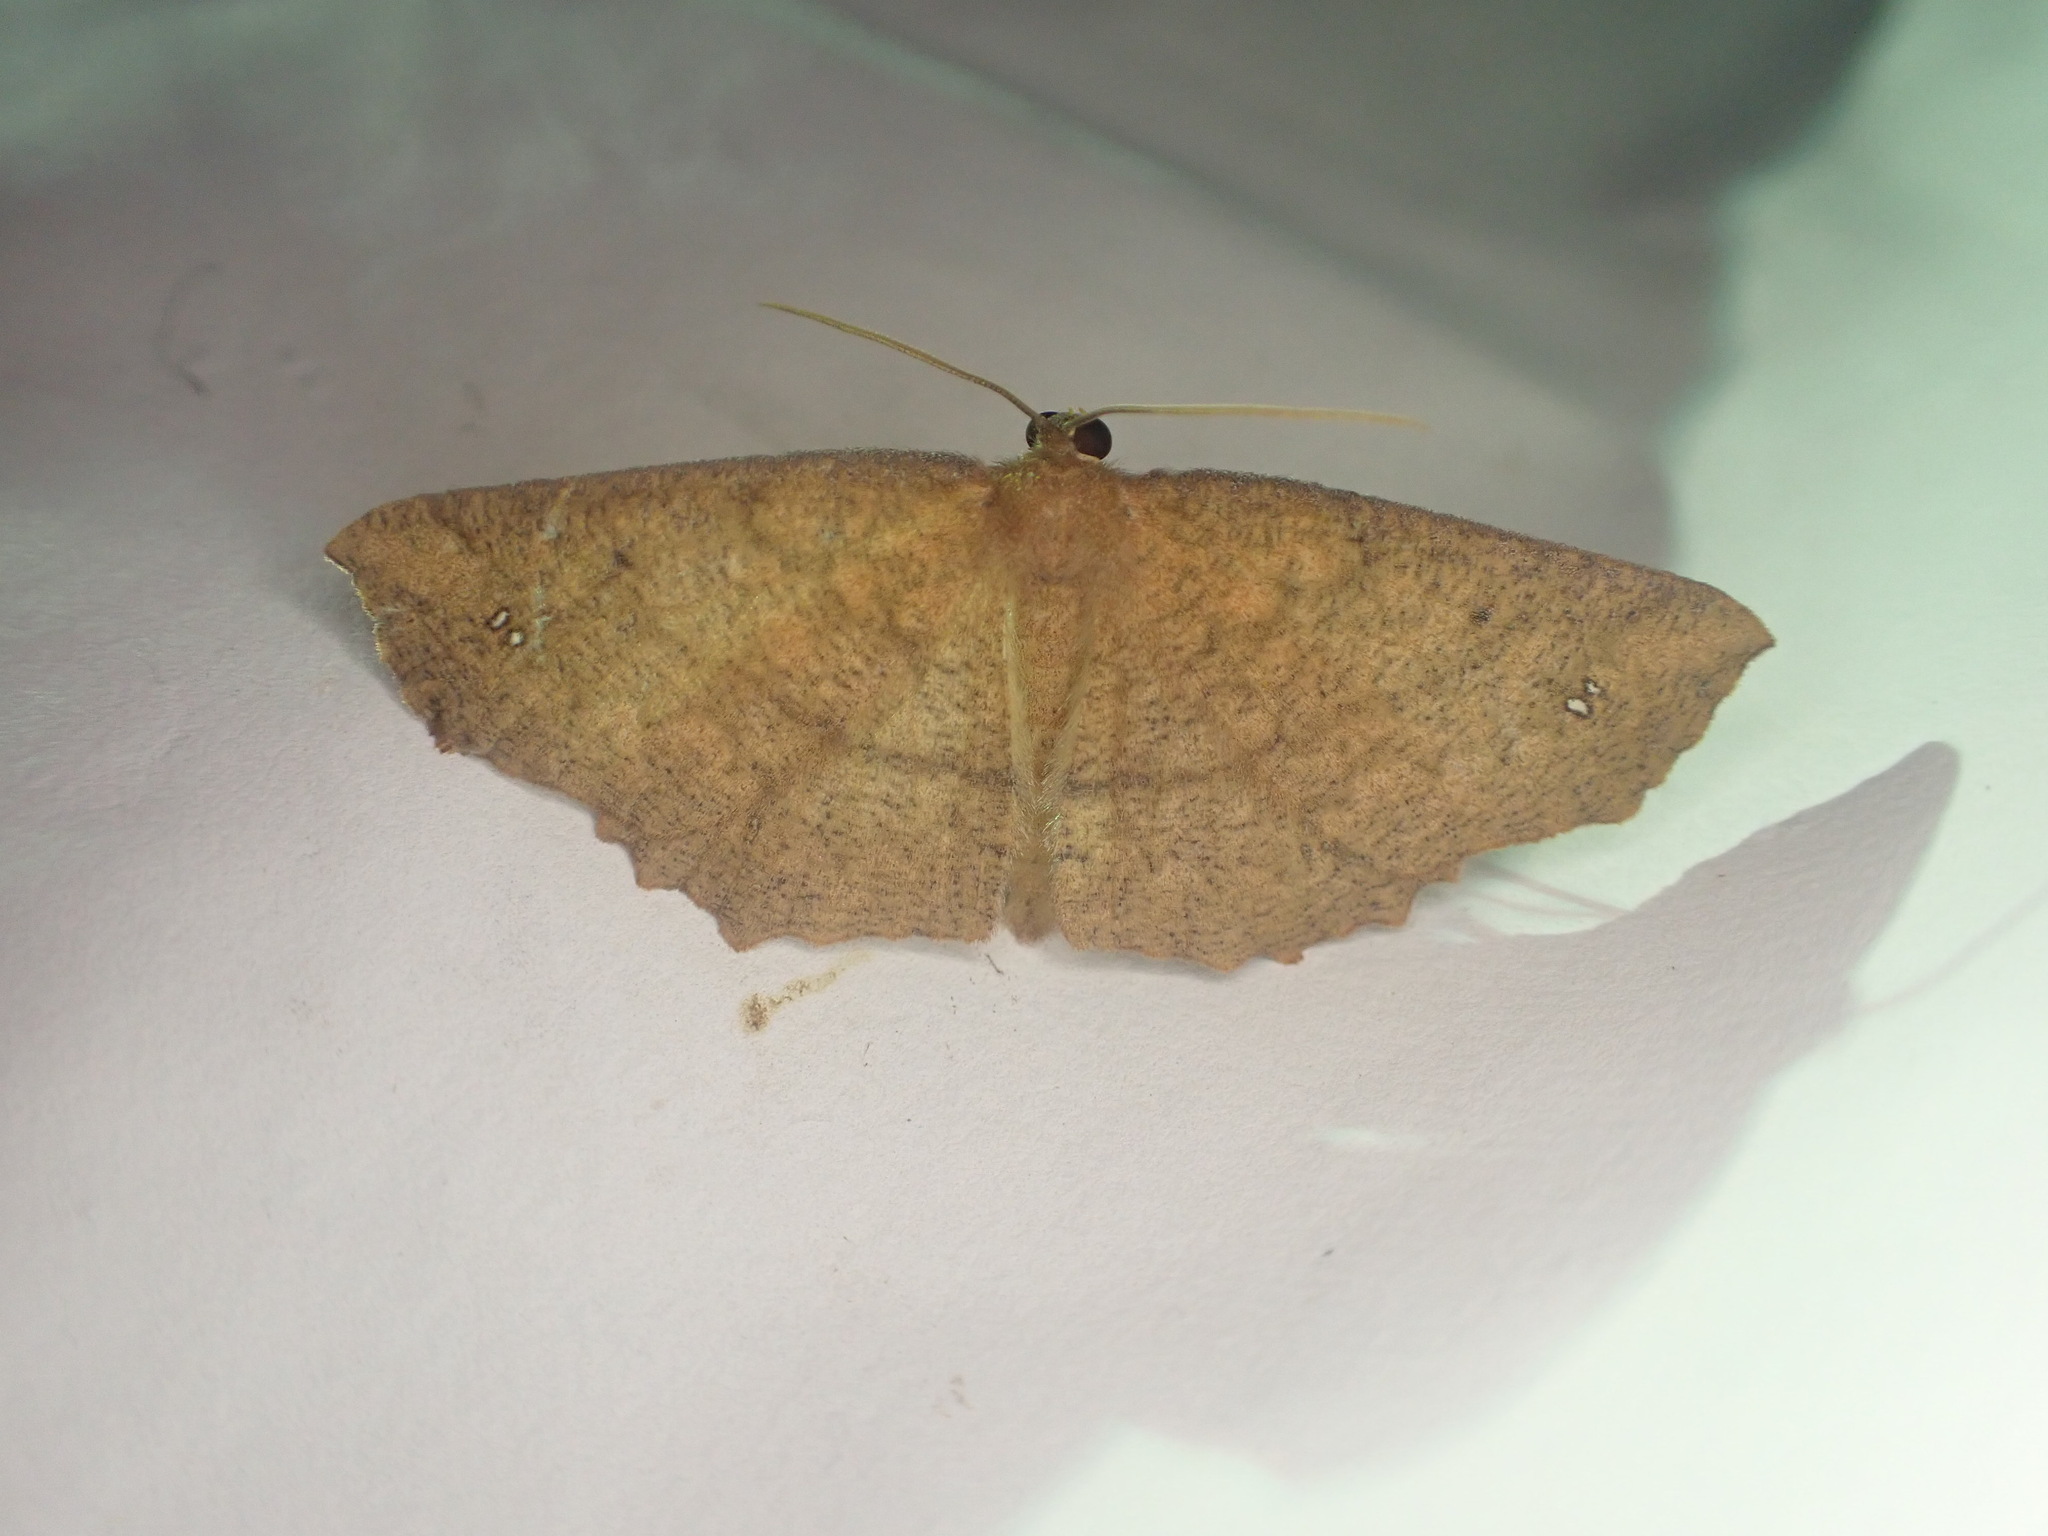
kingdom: Animalia
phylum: Arthropoda
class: Insecta
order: Lepidoptera
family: Geometridae
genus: Xyridacma
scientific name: Xyridacma ustaria
